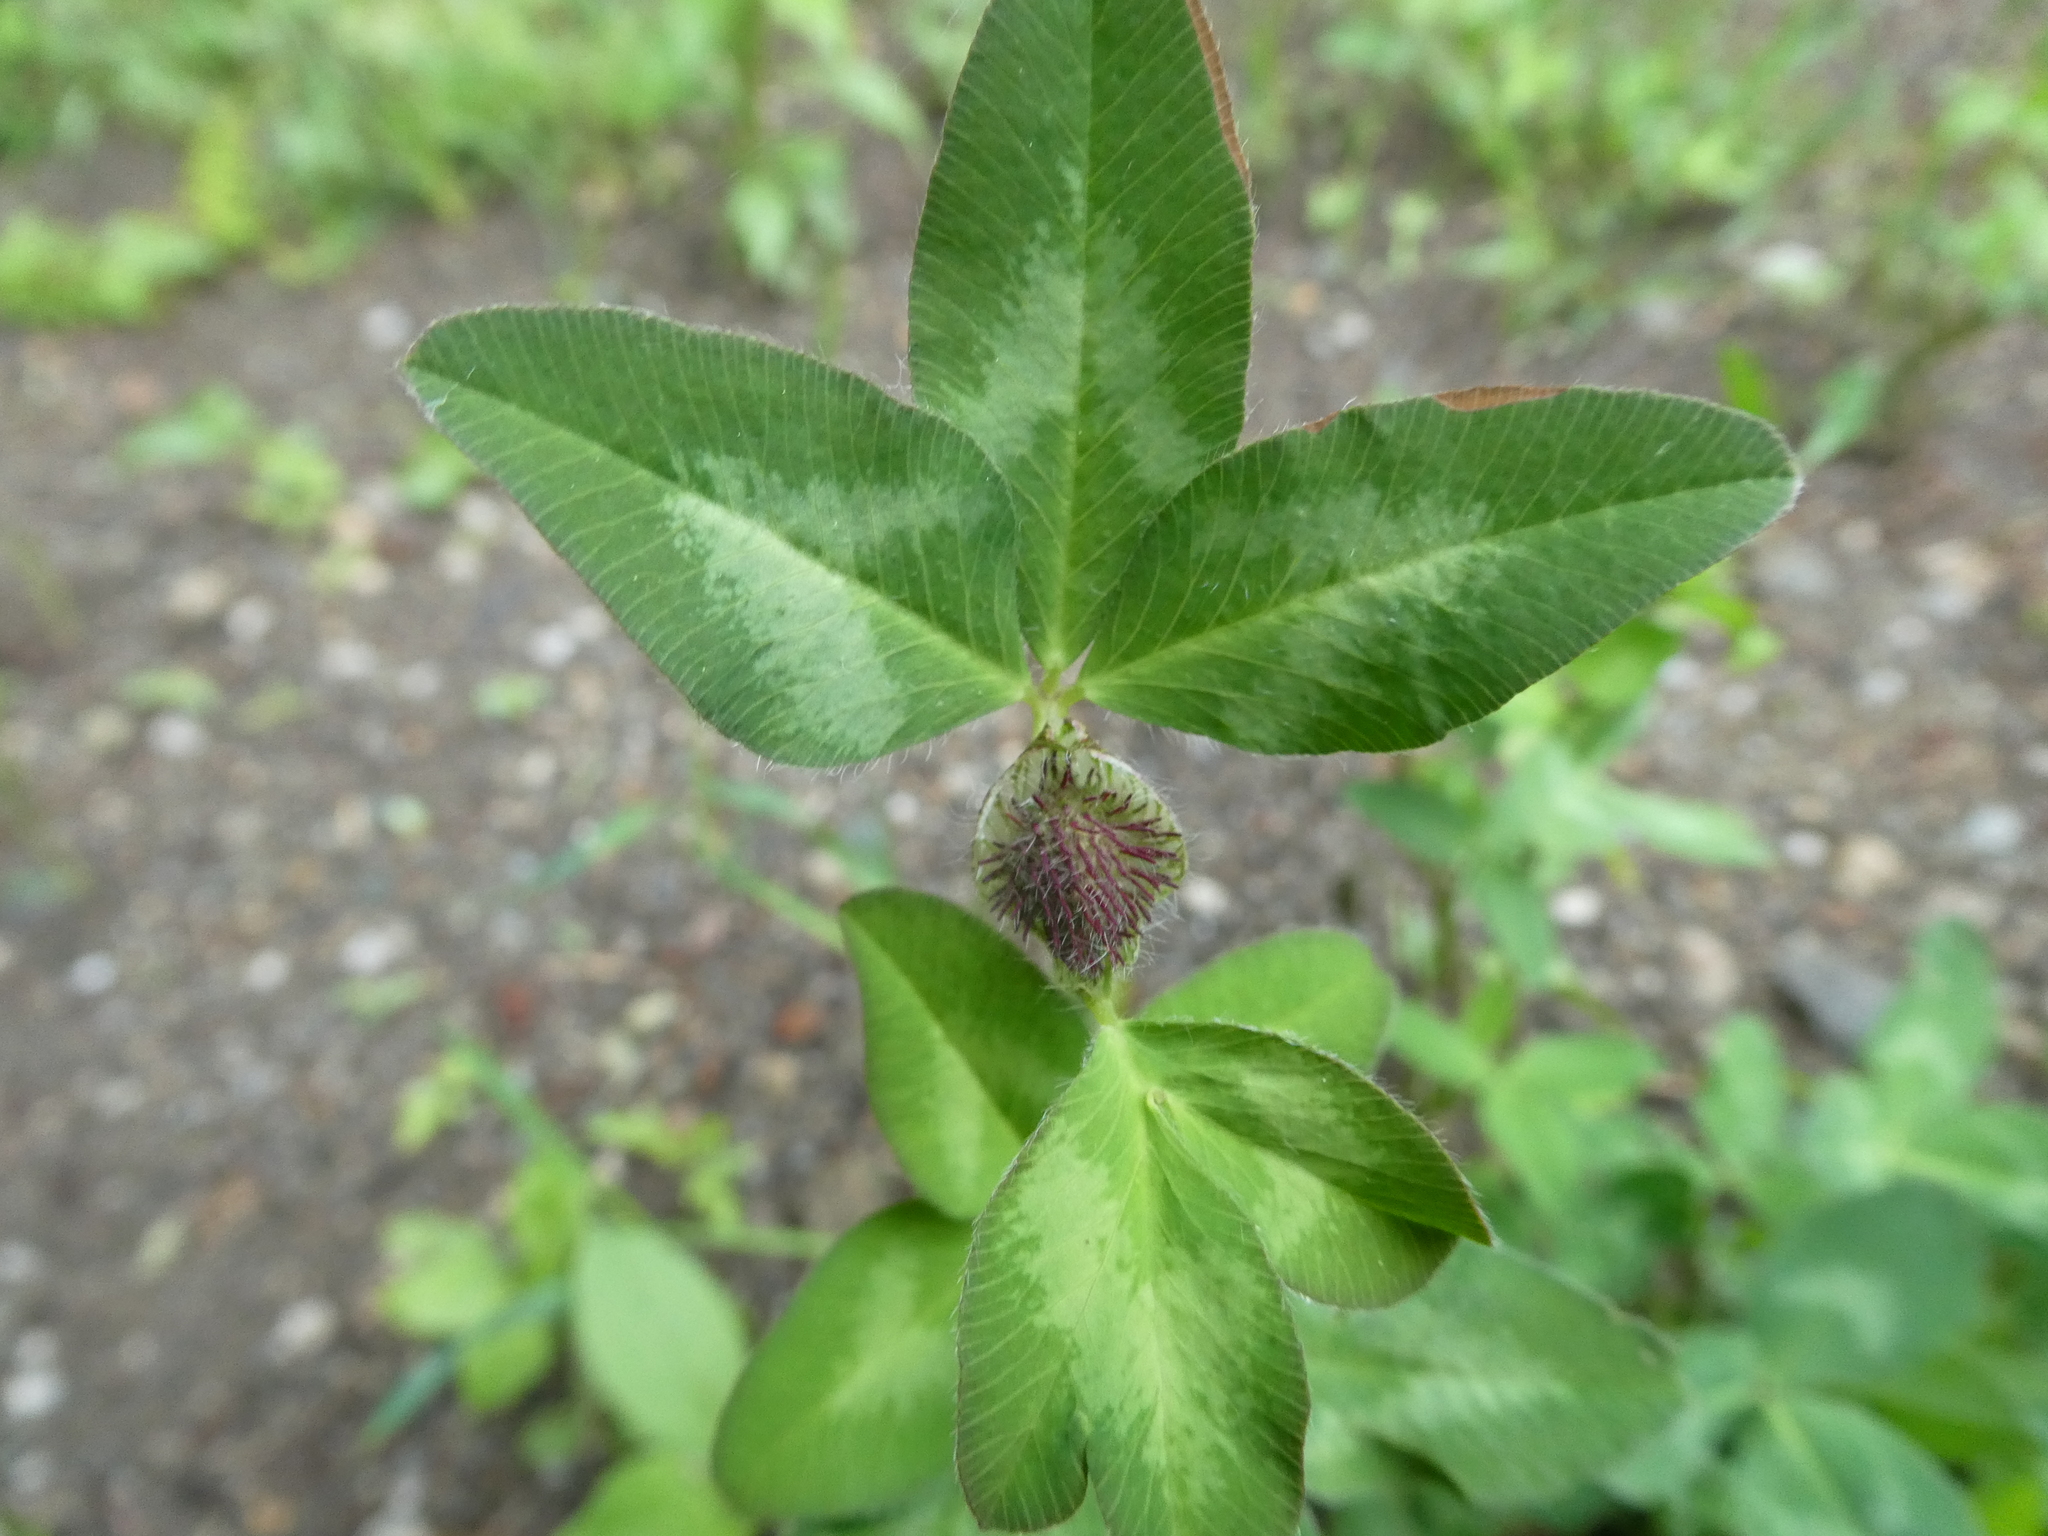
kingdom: Plantae
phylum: Tracheophyta
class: Magnoliopsida
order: Fabales
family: Fabaceae
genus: Trifolium
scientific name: Trifolium pratense
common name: Red clover
